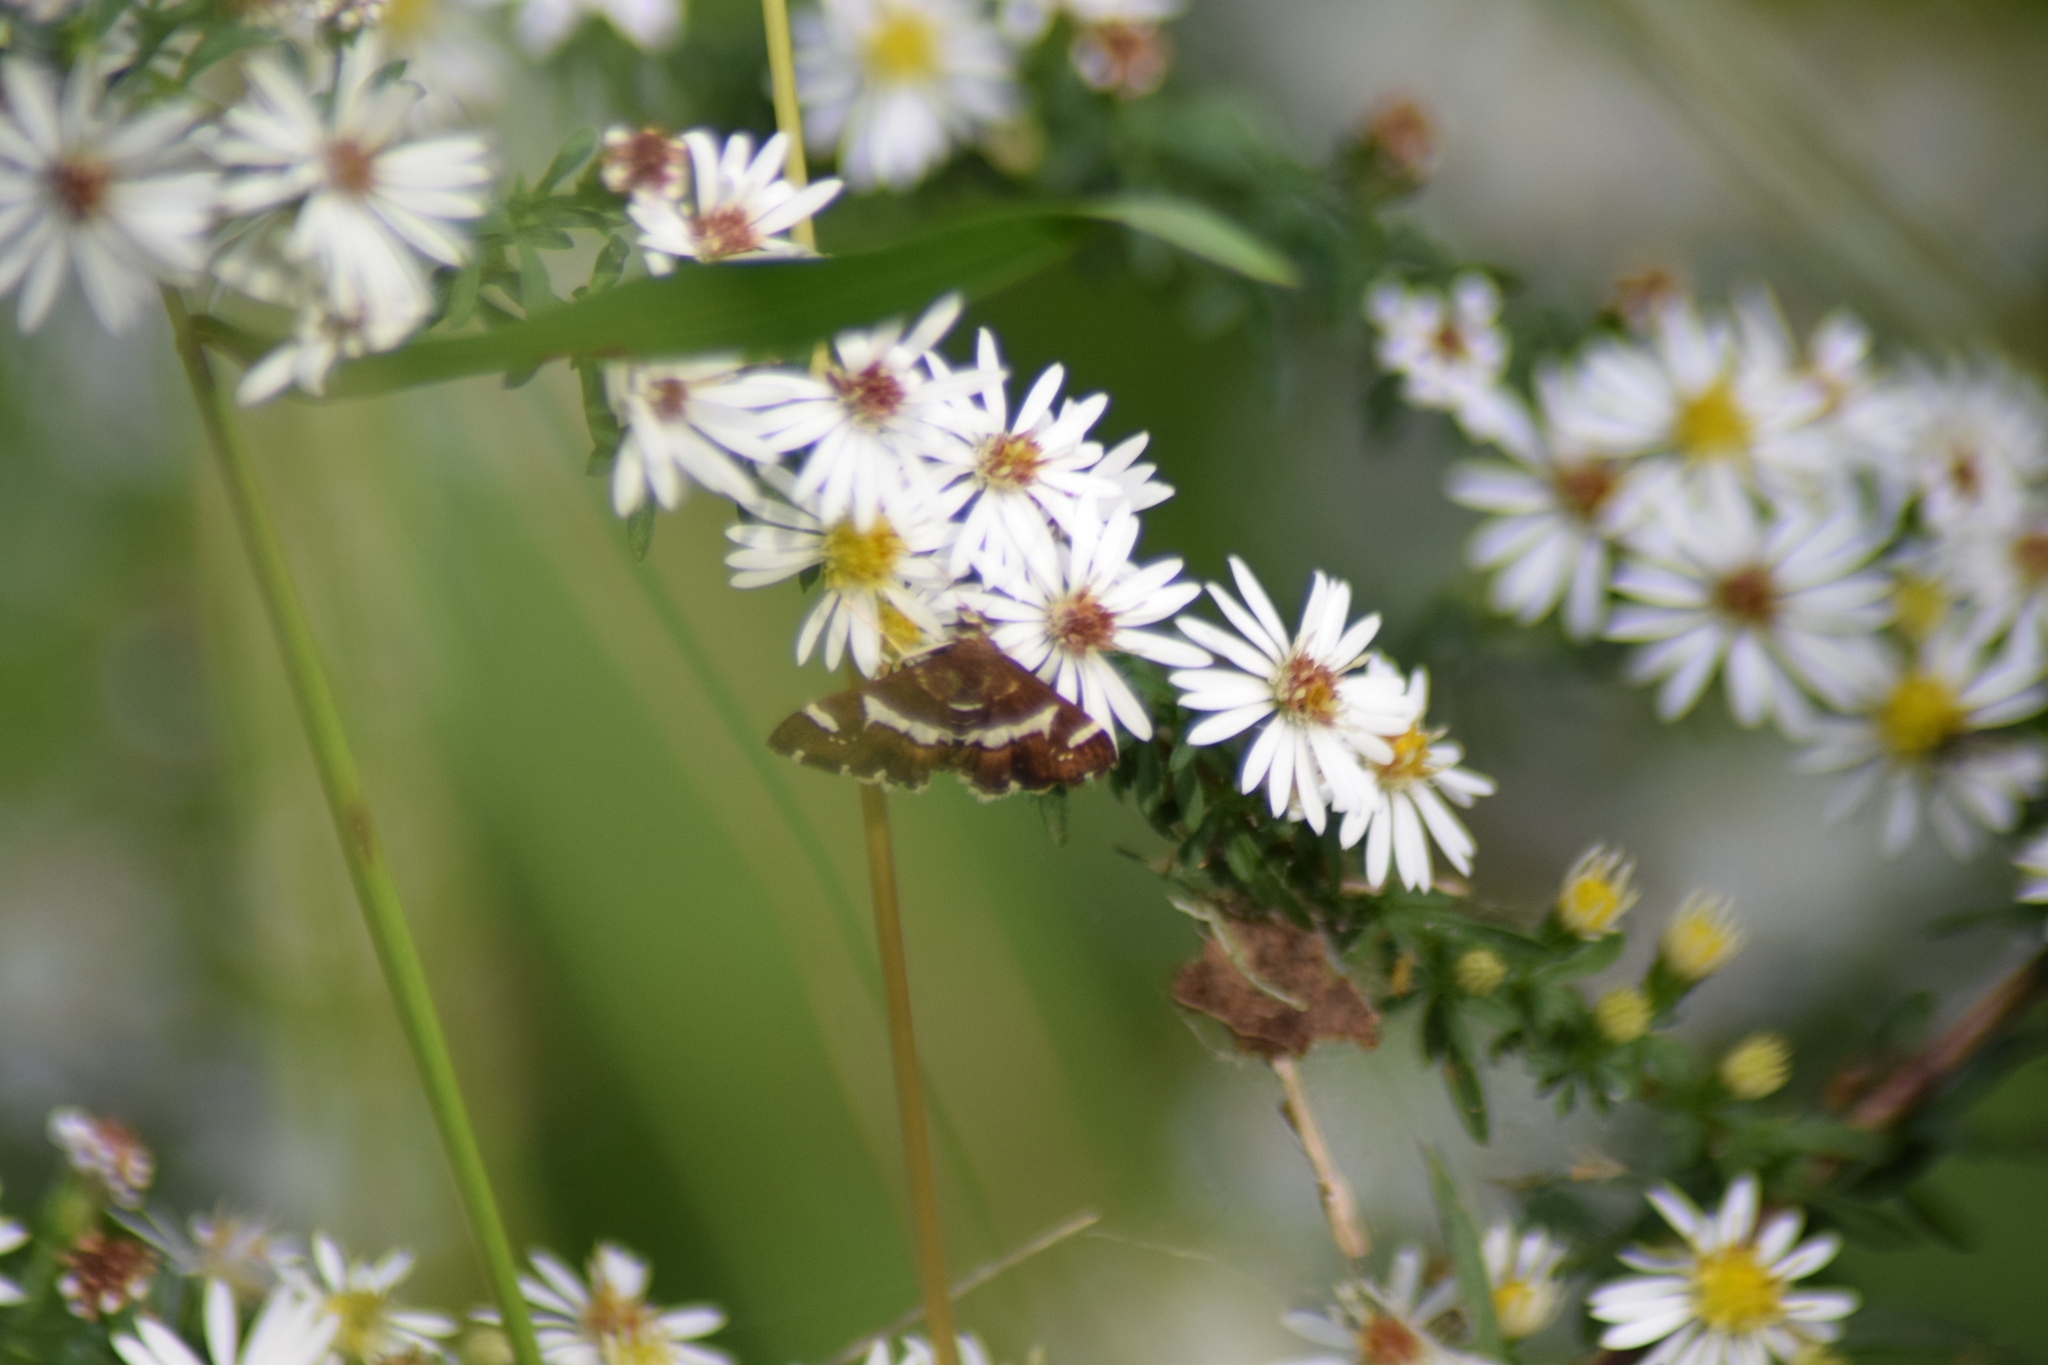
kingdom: Animalia
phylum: Arthropoda
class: Insecta
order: Lepidoptera
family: Crambidae
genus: Spoladea
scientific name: Spoladea recurvalis
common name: Beet webworm moth
